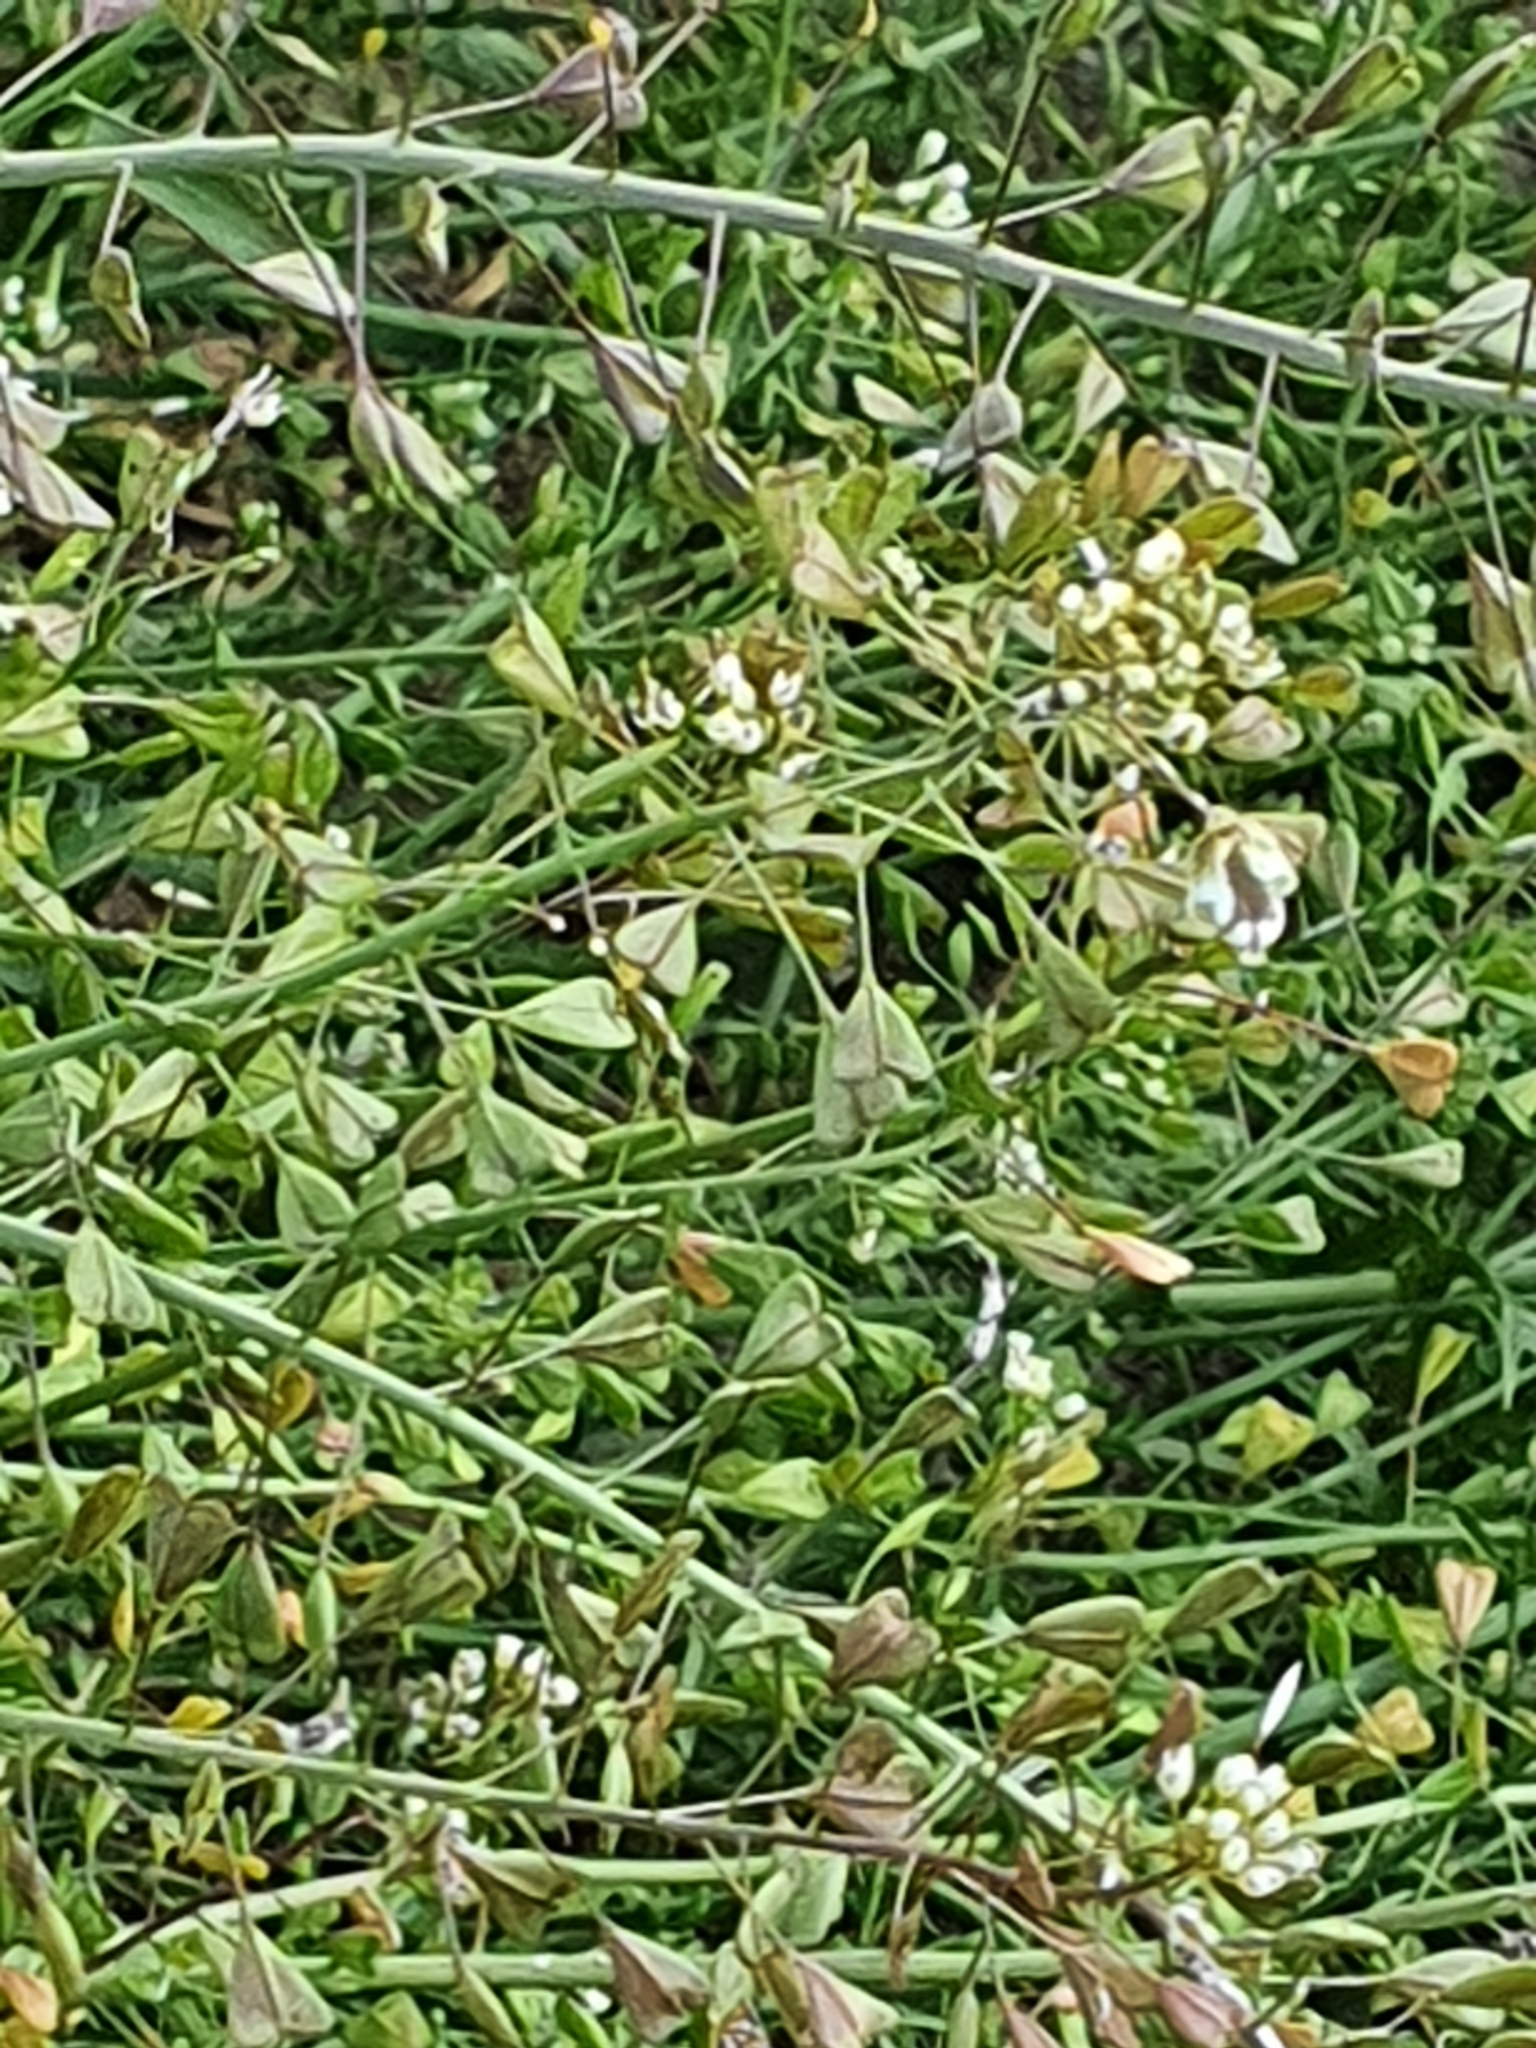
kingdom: Plantae
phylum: Tracheophyta
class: Magnoliopsida
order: Brassicales
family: Brassicaceae
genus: Capsella
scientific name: Capsella bursa-pastoris
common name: Shepherd's purse
